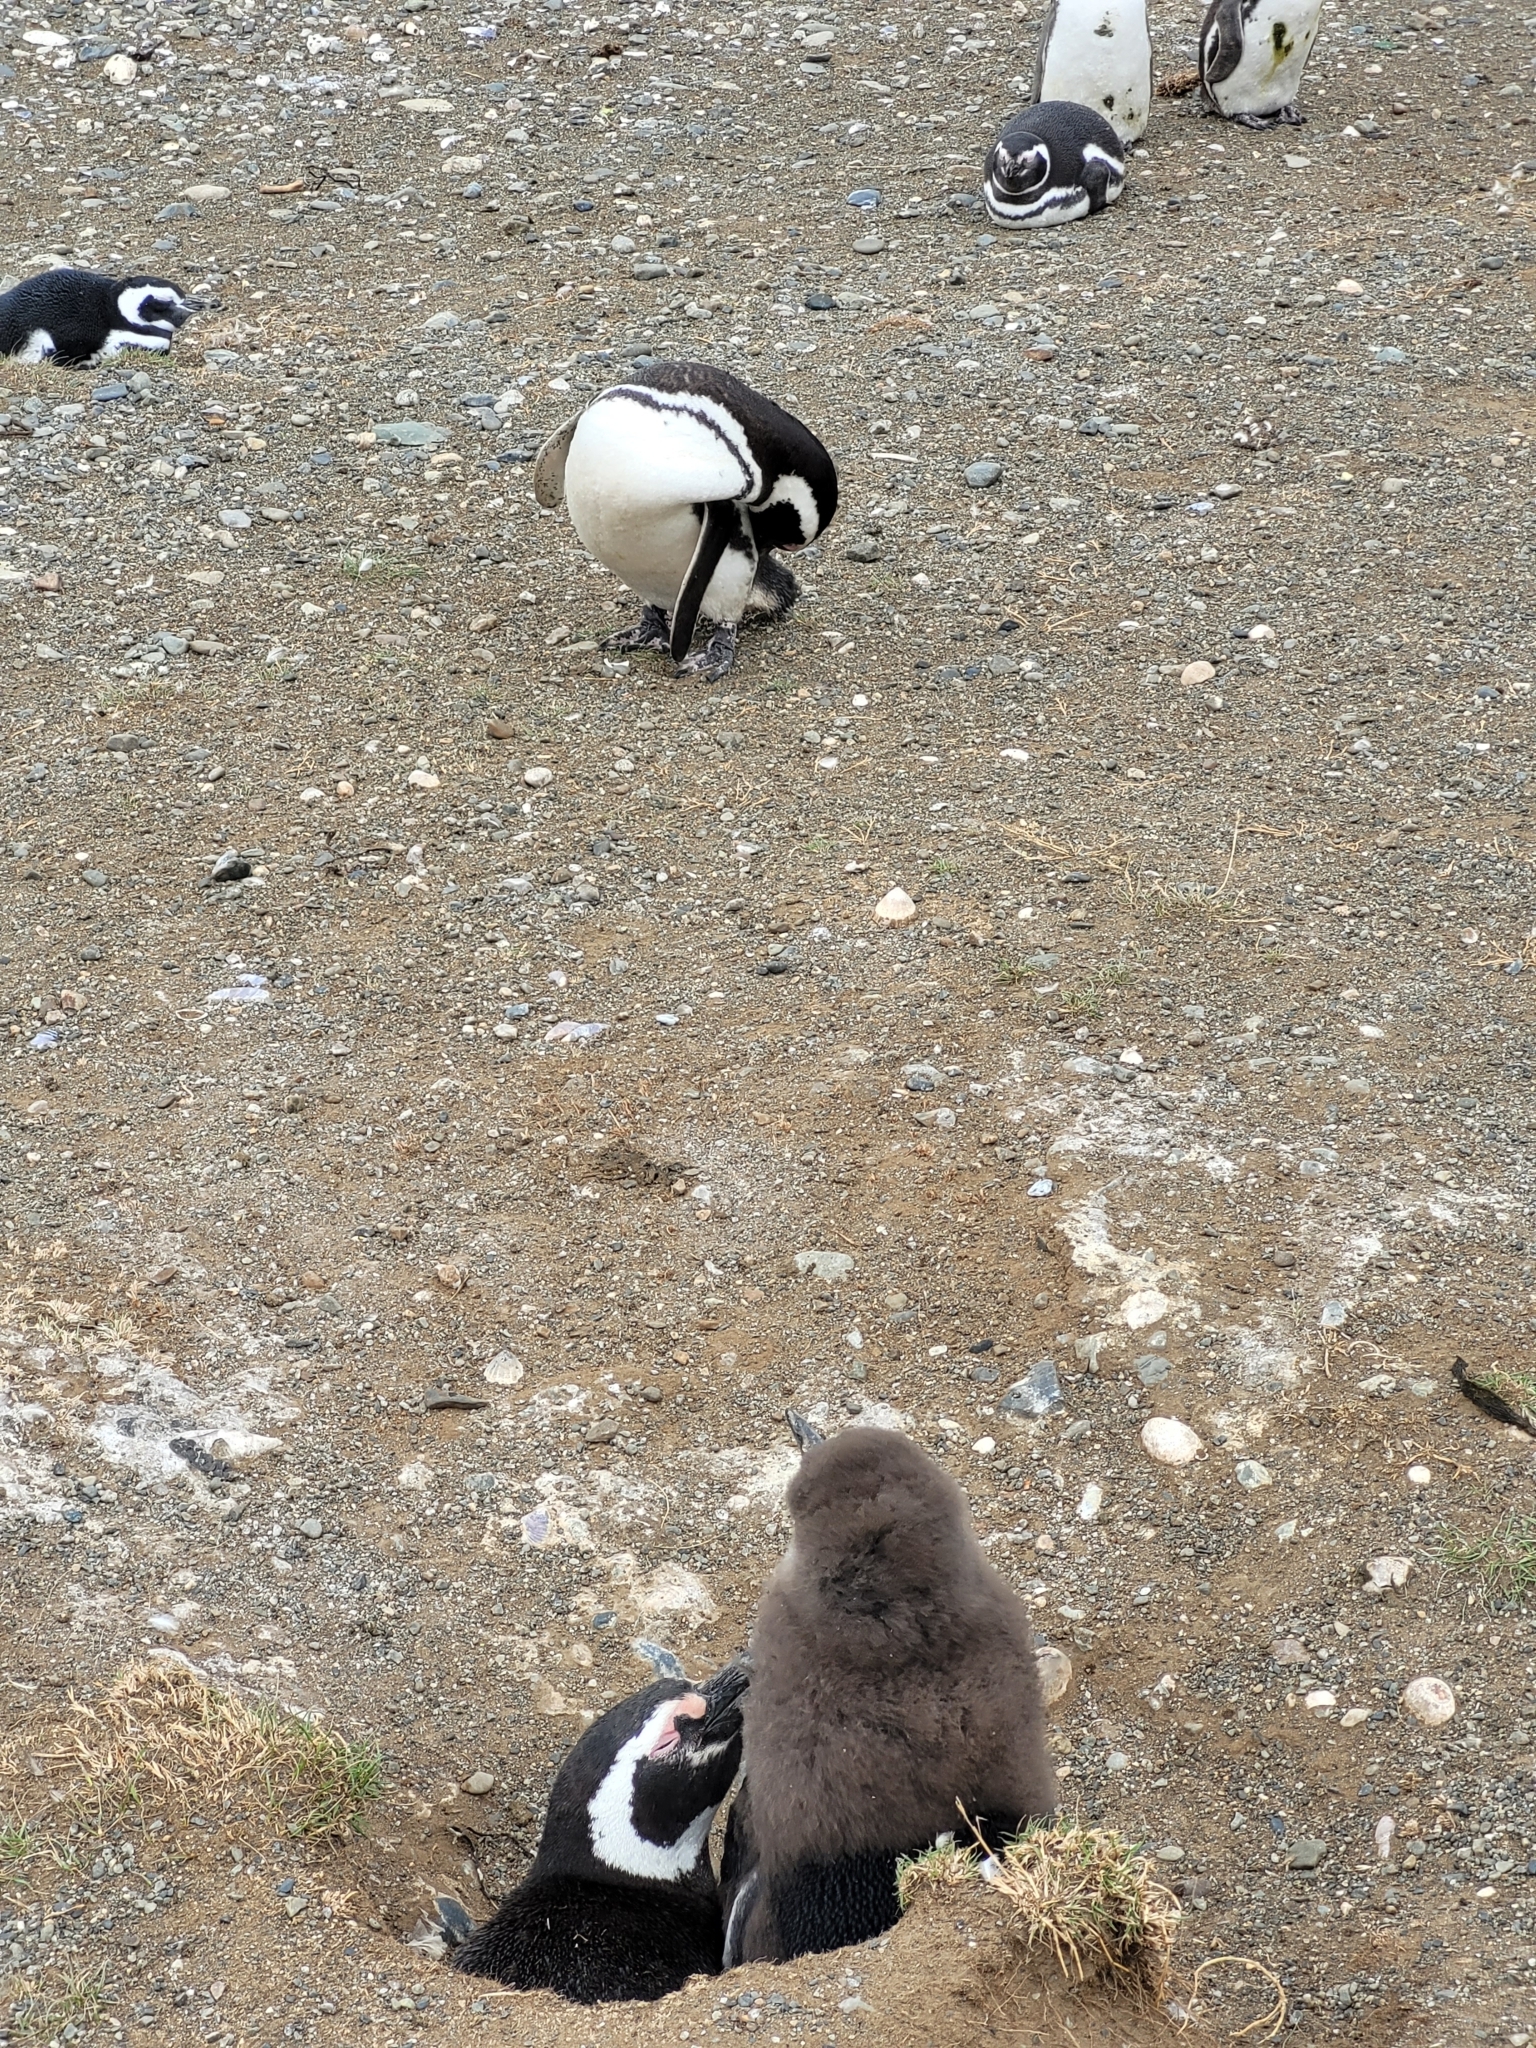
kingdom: Animalia
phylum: Chordata
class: Aves
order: Sphenisciformes
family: Spheniscidae
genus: Spheniscus
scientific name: Spheniscus magellanicus
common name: Magellanic penguin
